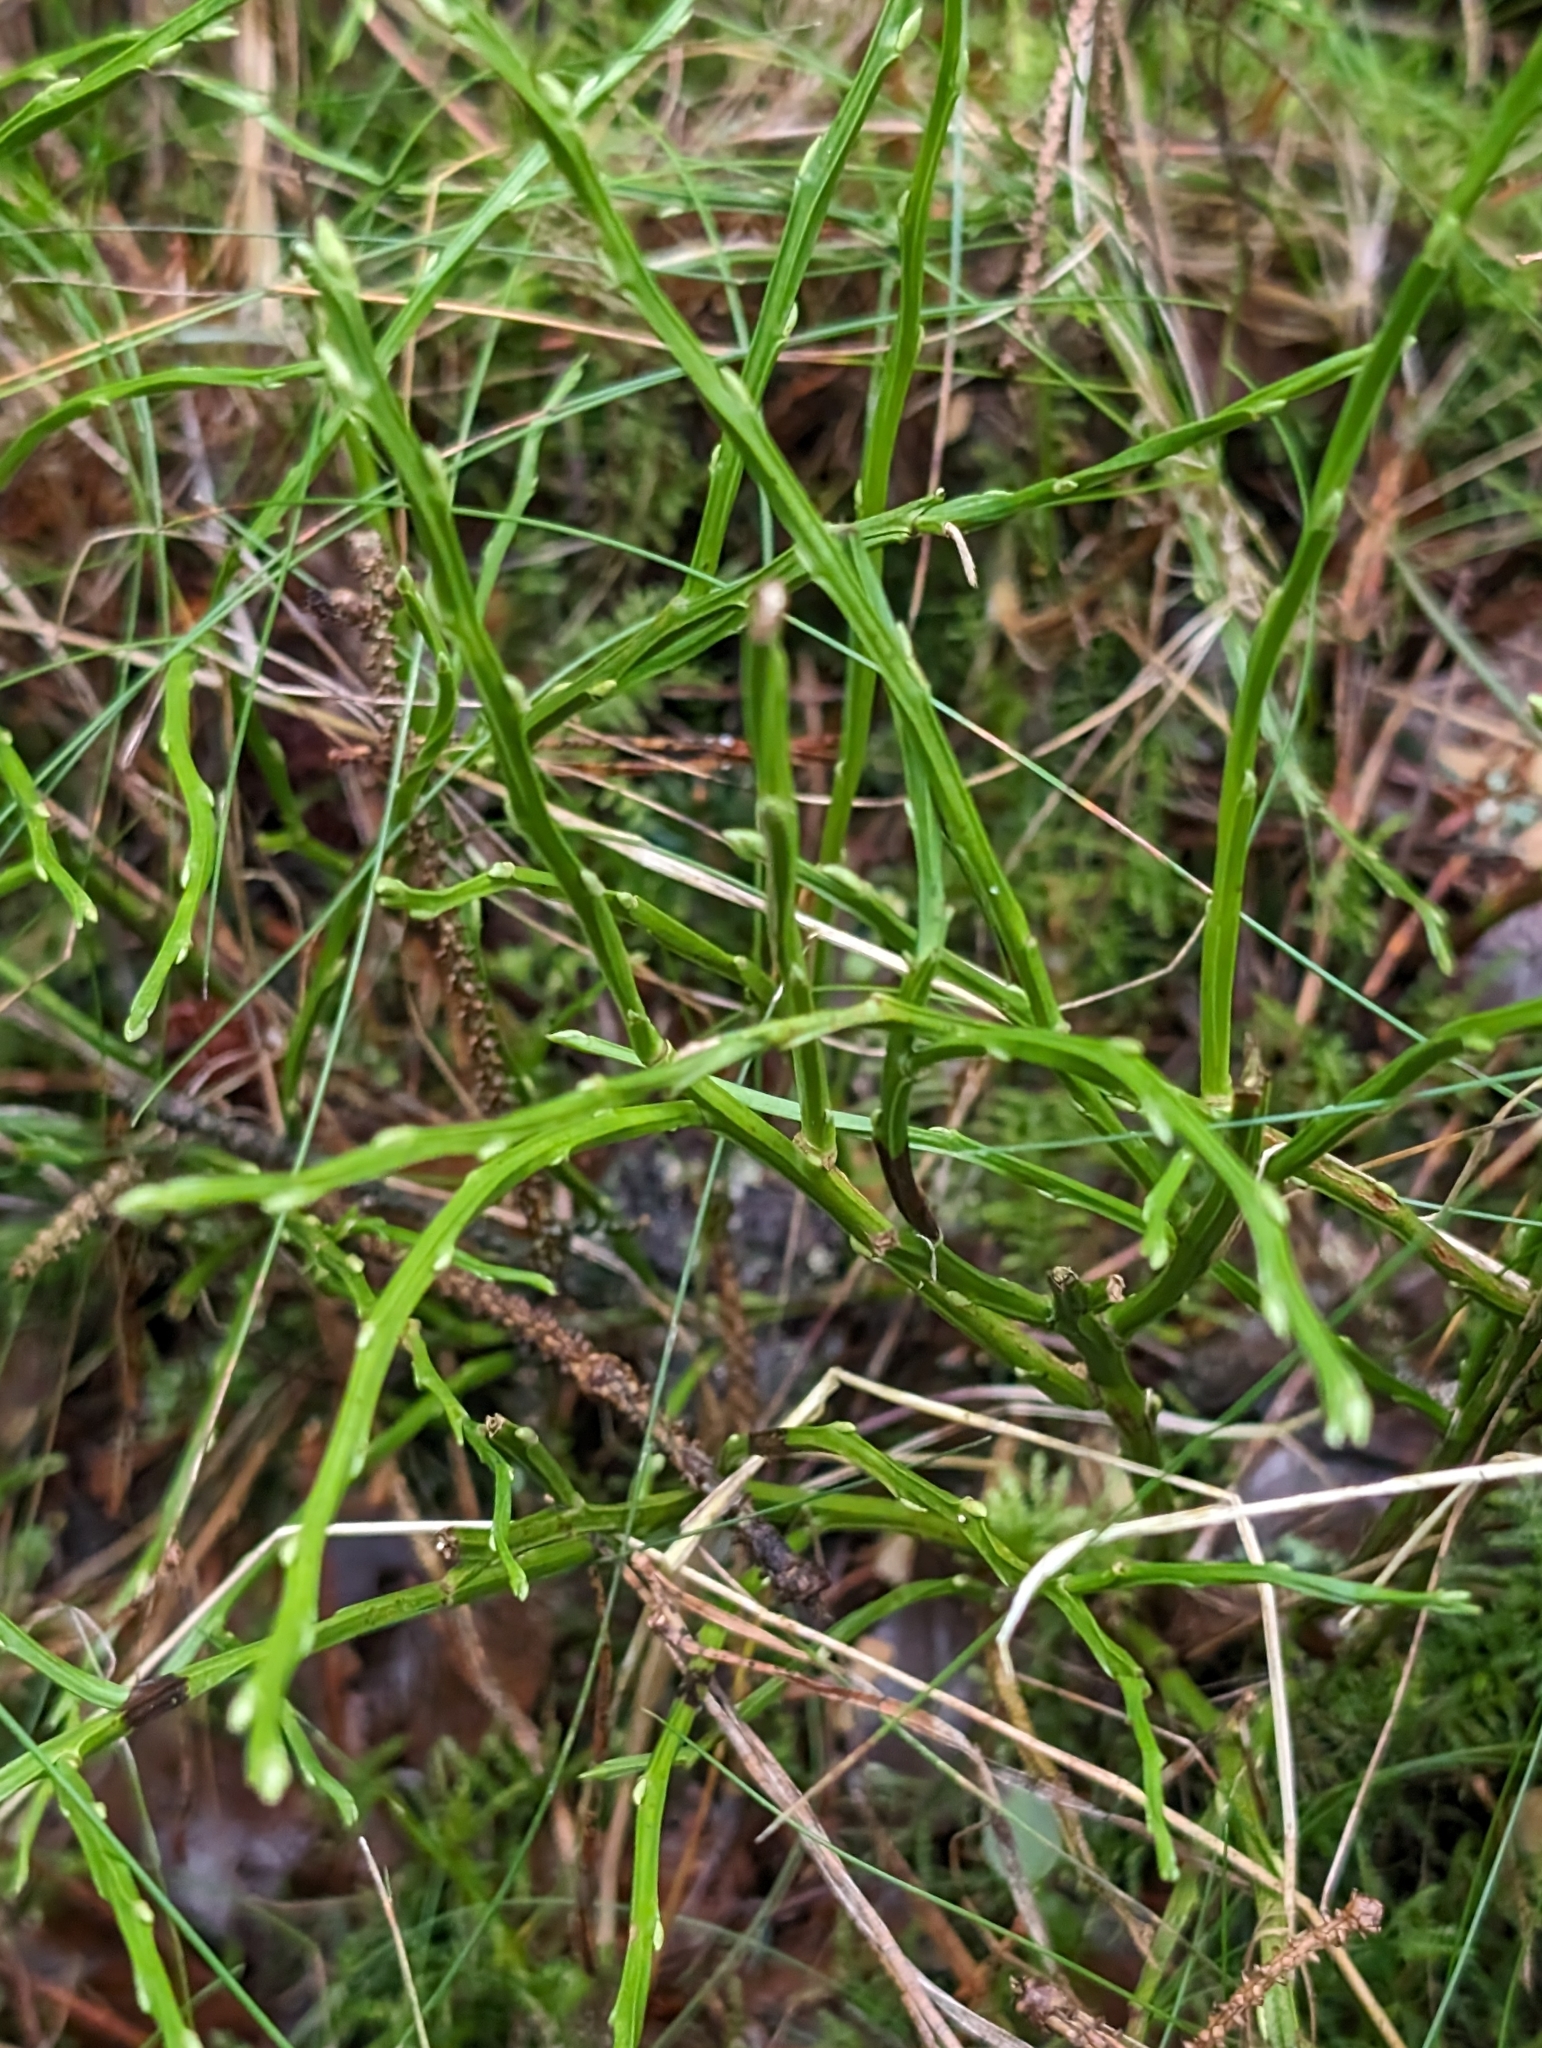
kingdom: Plantae
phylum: Tracheophyta
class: Magnoliopsida
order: Ericales
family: Ericaceae
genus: Vaccinium
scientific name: Vaccinium myrtillus
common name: Bilberry
